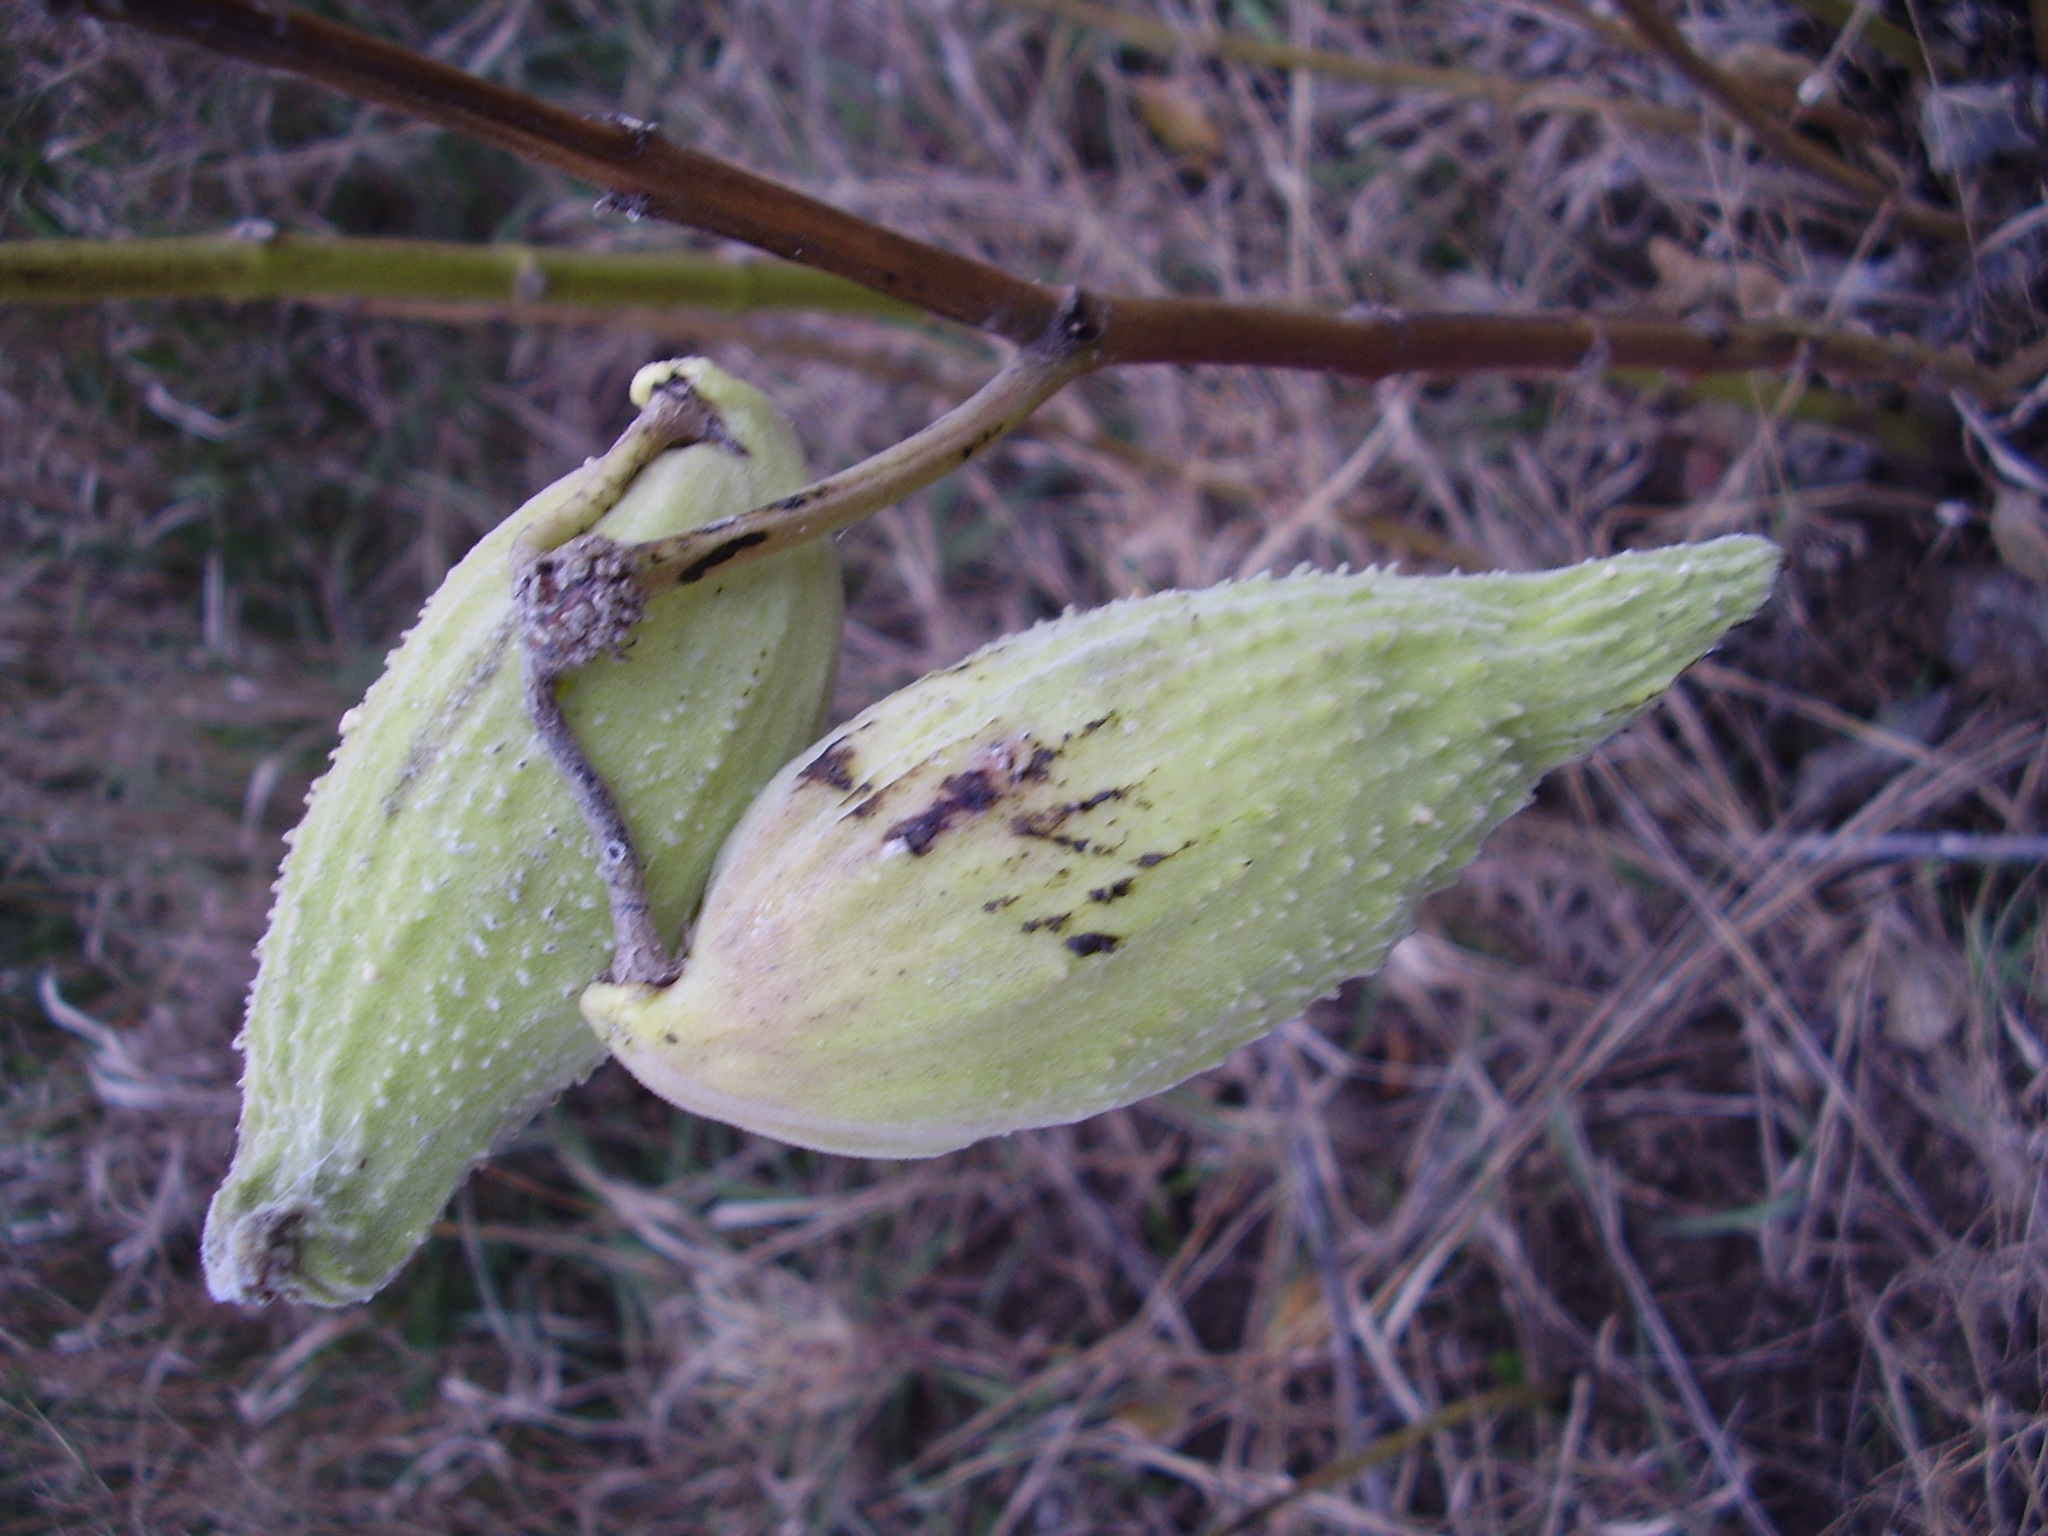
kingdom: Plantae
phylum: Tracheophyta
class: Magnoliopsida
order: Gentianales
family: Apocynaceae
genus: Asclepias
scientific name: Asclepias syriaca
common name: Common milkweed
